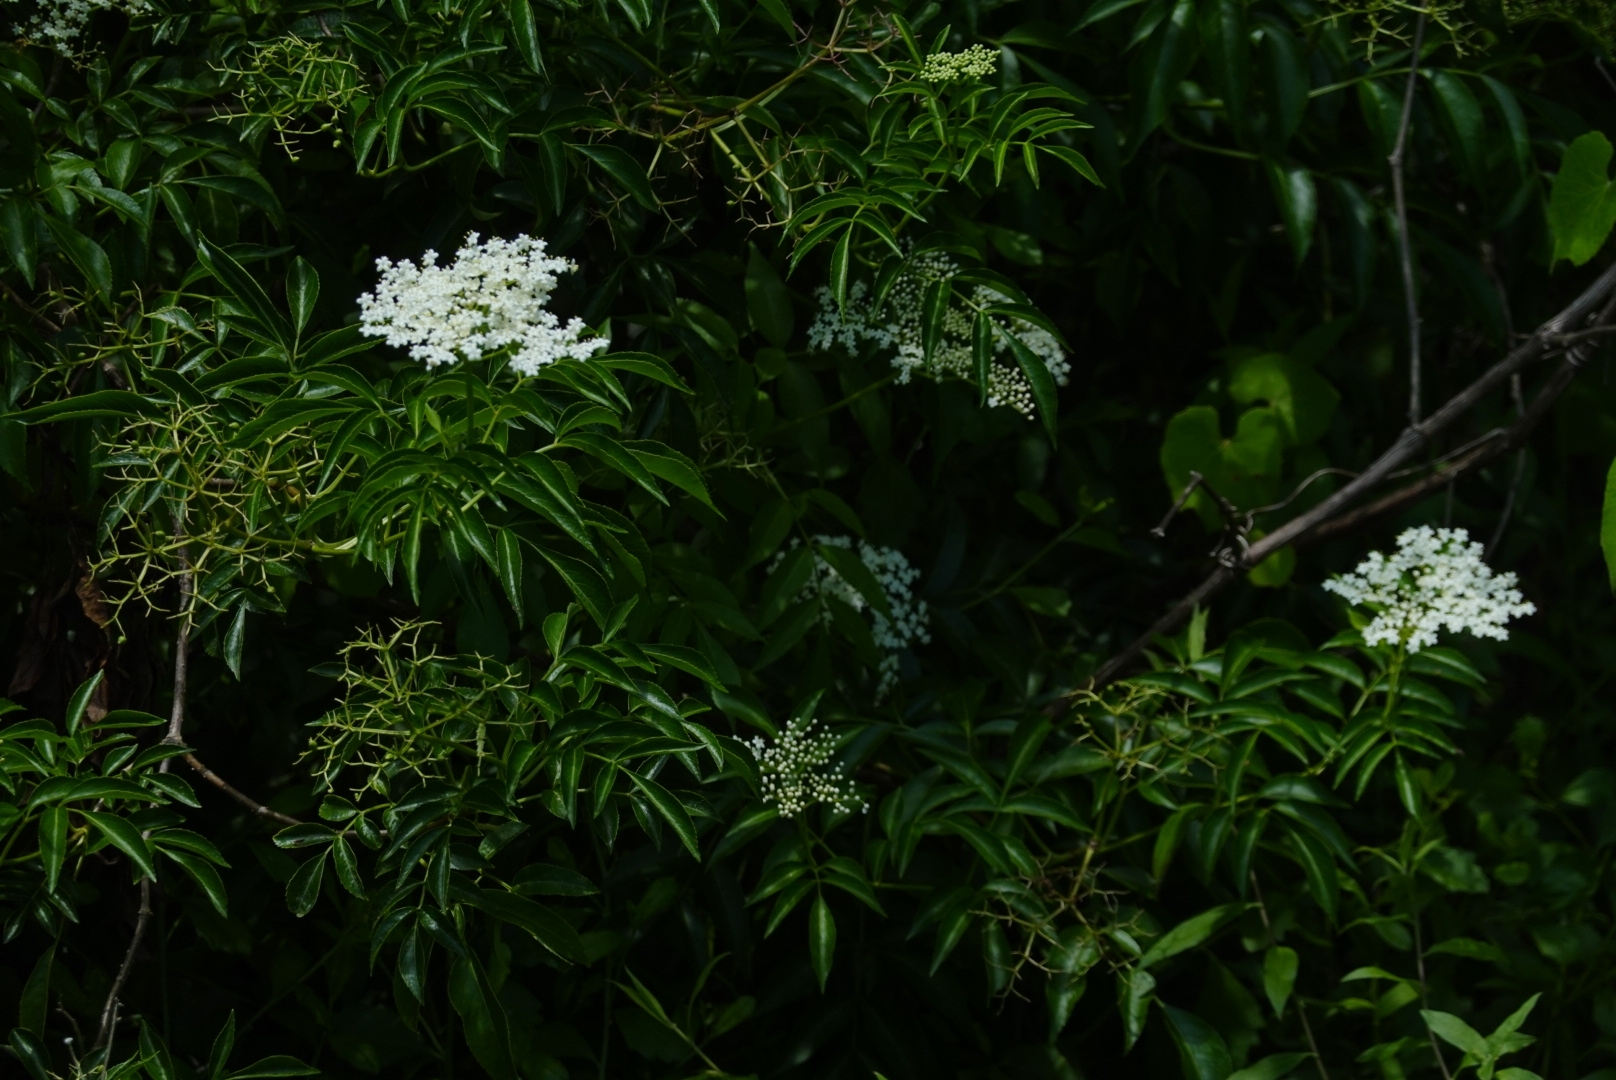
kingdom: Plantae
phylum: Tracheophyta
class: Magnoliopsida
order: Dipsacales
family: Viburnaceae
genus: Sambucus
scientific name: Sambucus canadensis
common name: American elder
